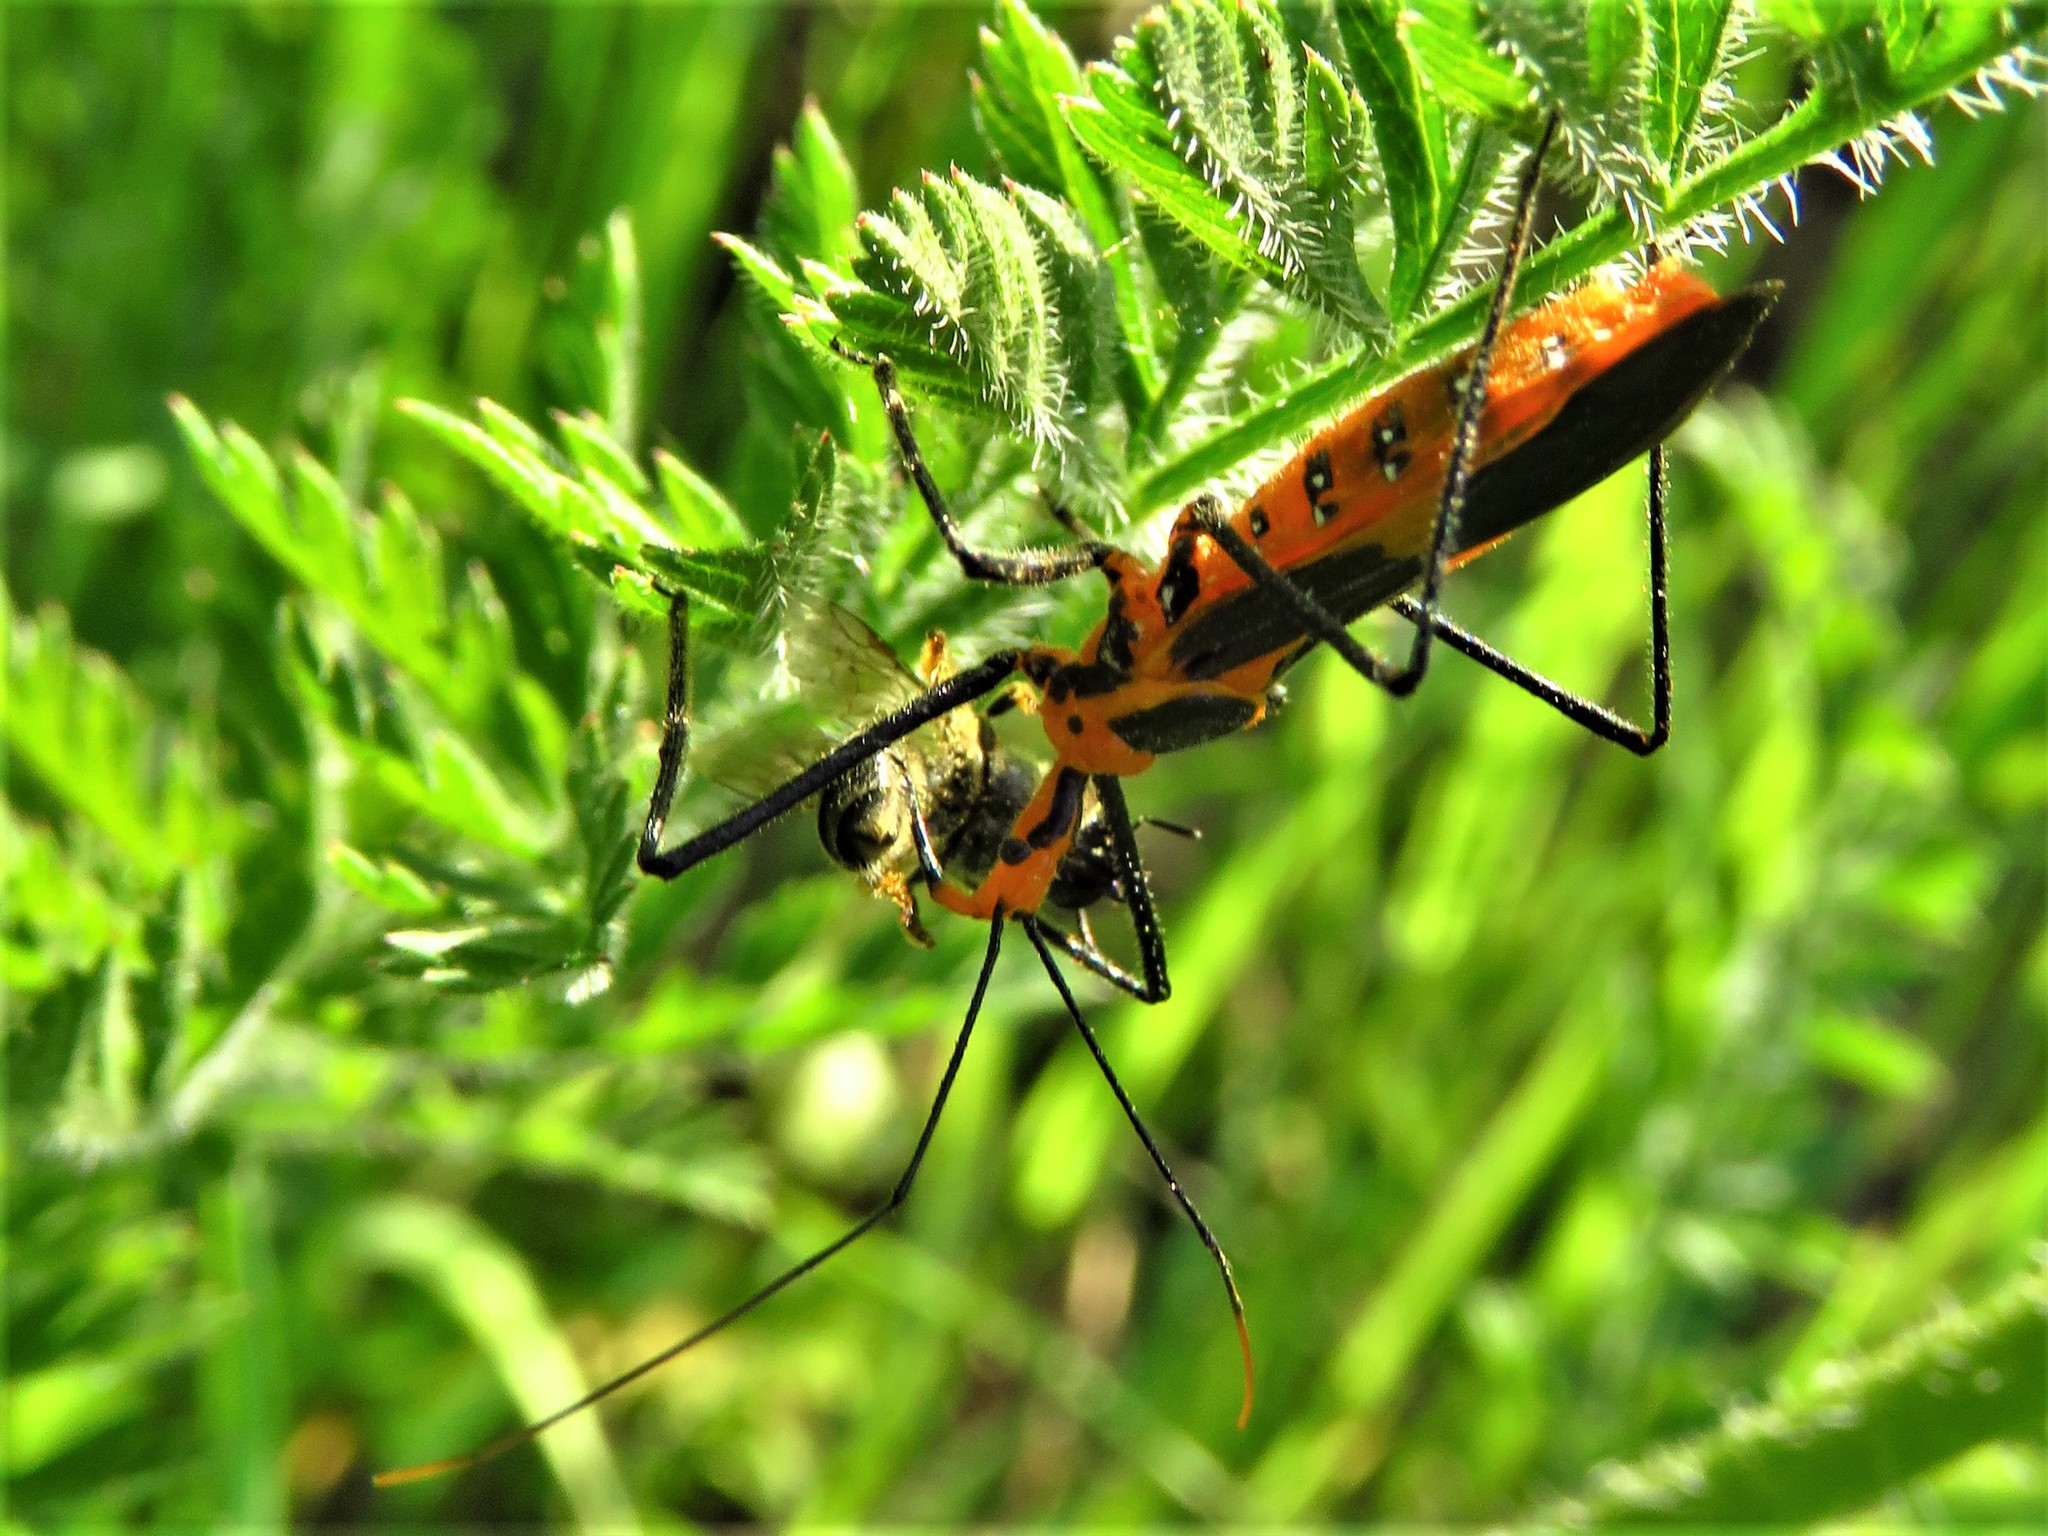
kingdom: Animalia
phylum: Arthropoda
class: Insecta
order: Hemiptera
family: Reduviidae
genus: Zelus
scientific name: Zelus longipes
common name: Milkweed assassin bug
